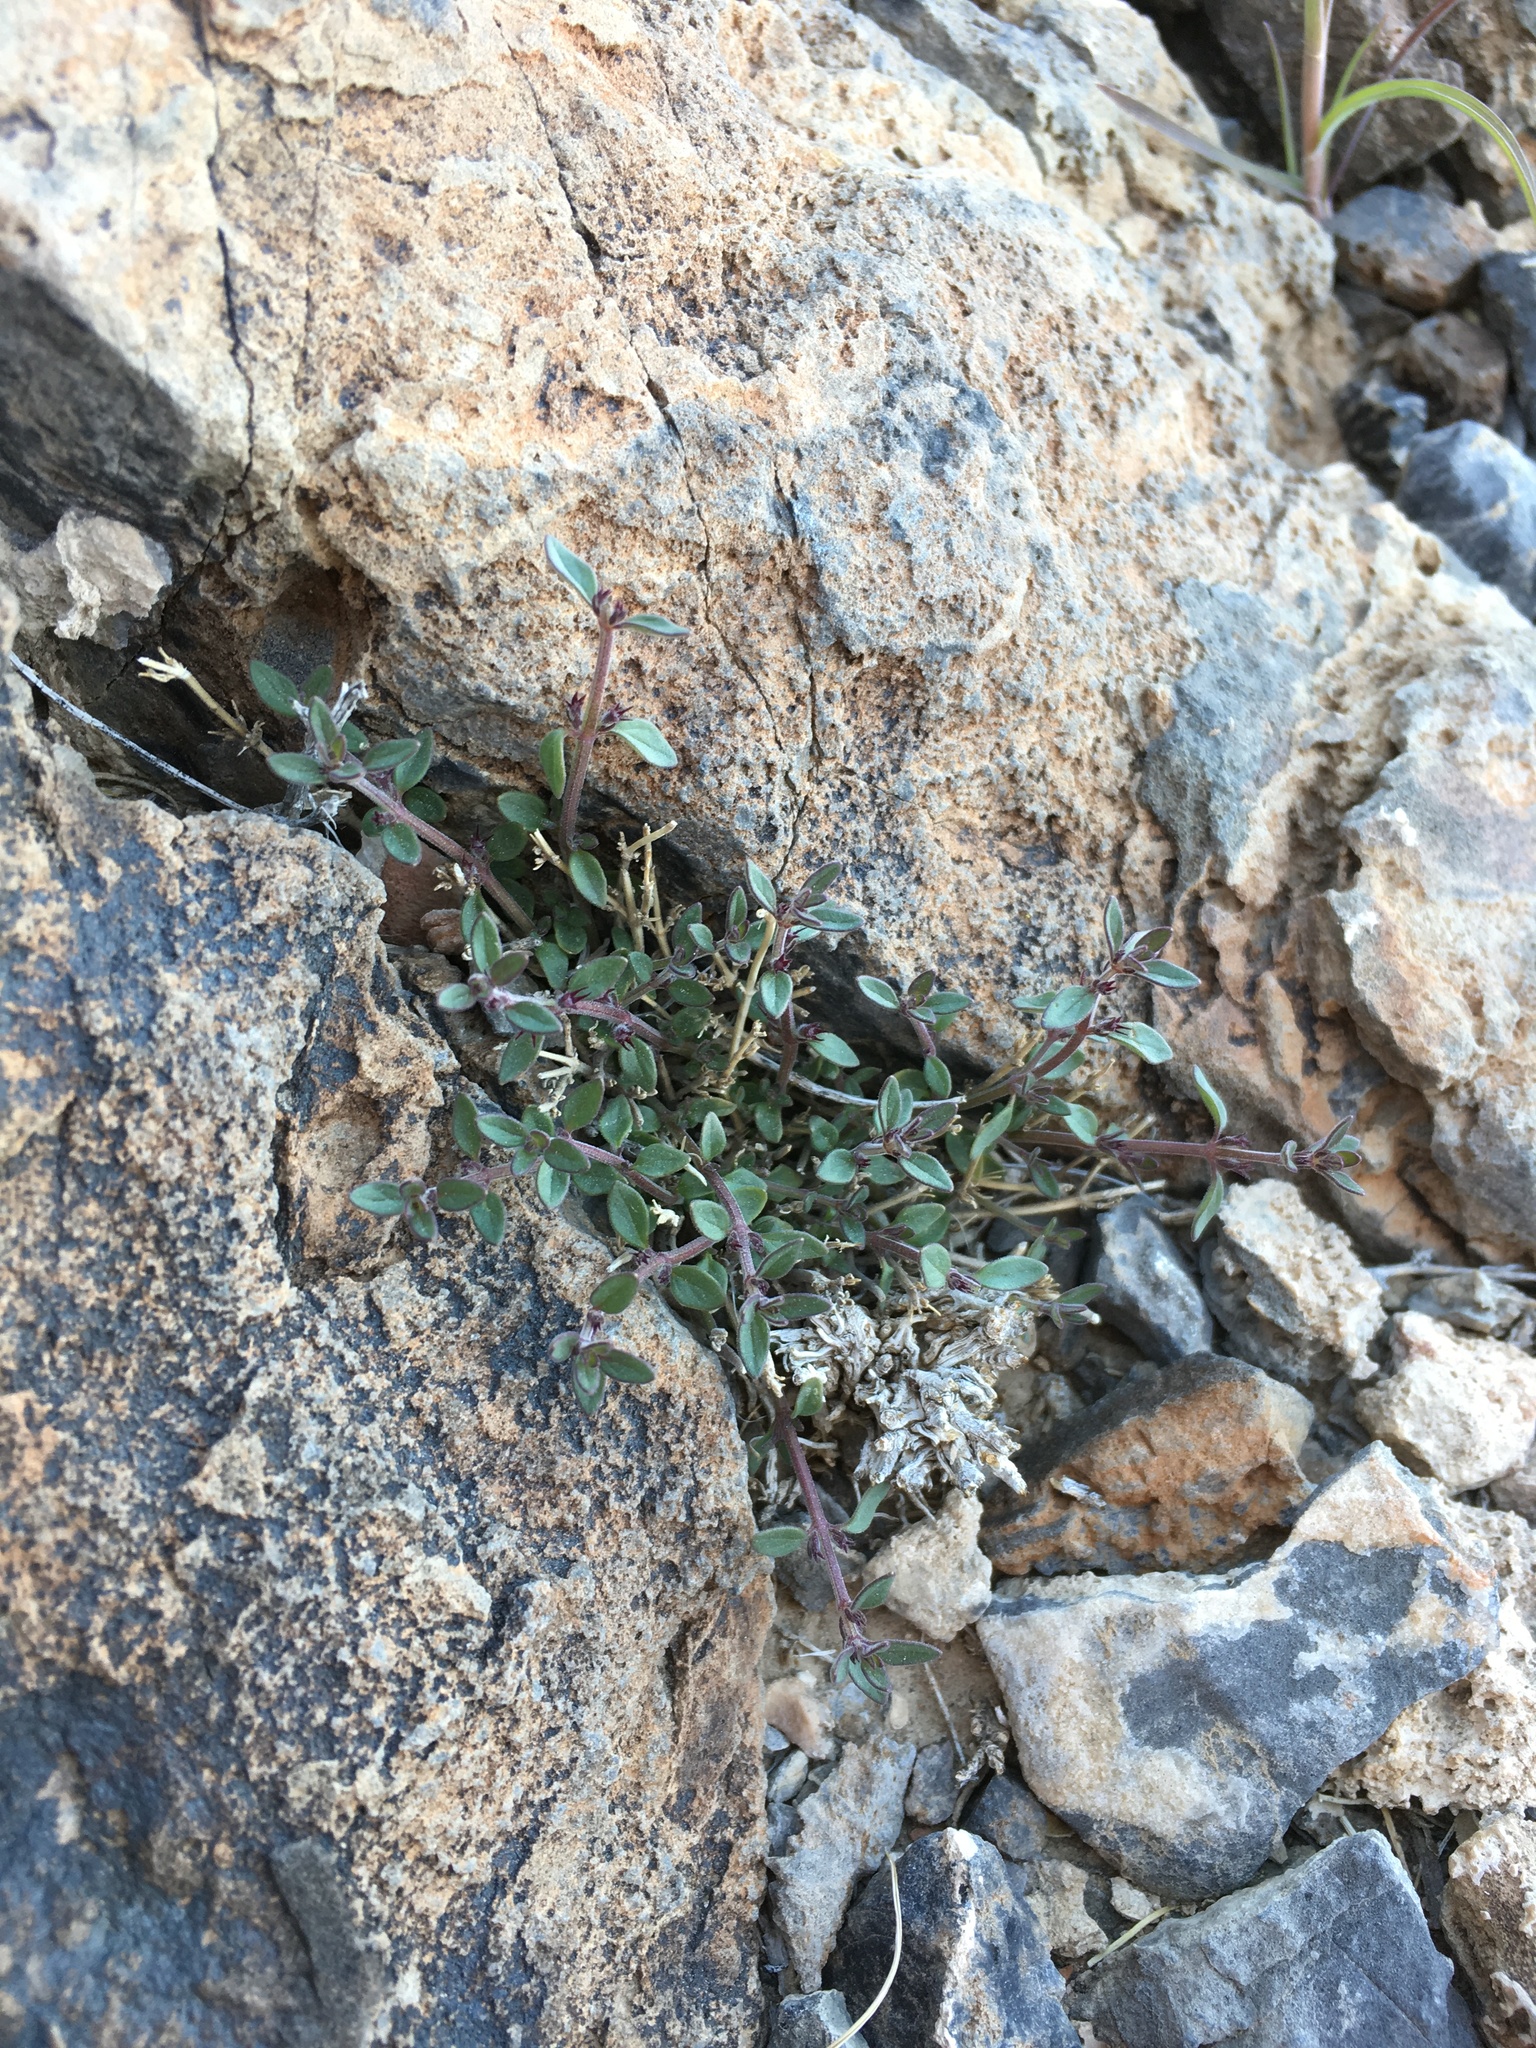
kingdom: Plantae
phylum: Tracheophyta
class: Magnoliopsida
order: Lamiales
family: Lamiaceae
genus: Hedeoma
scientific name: Hedeoma nana
